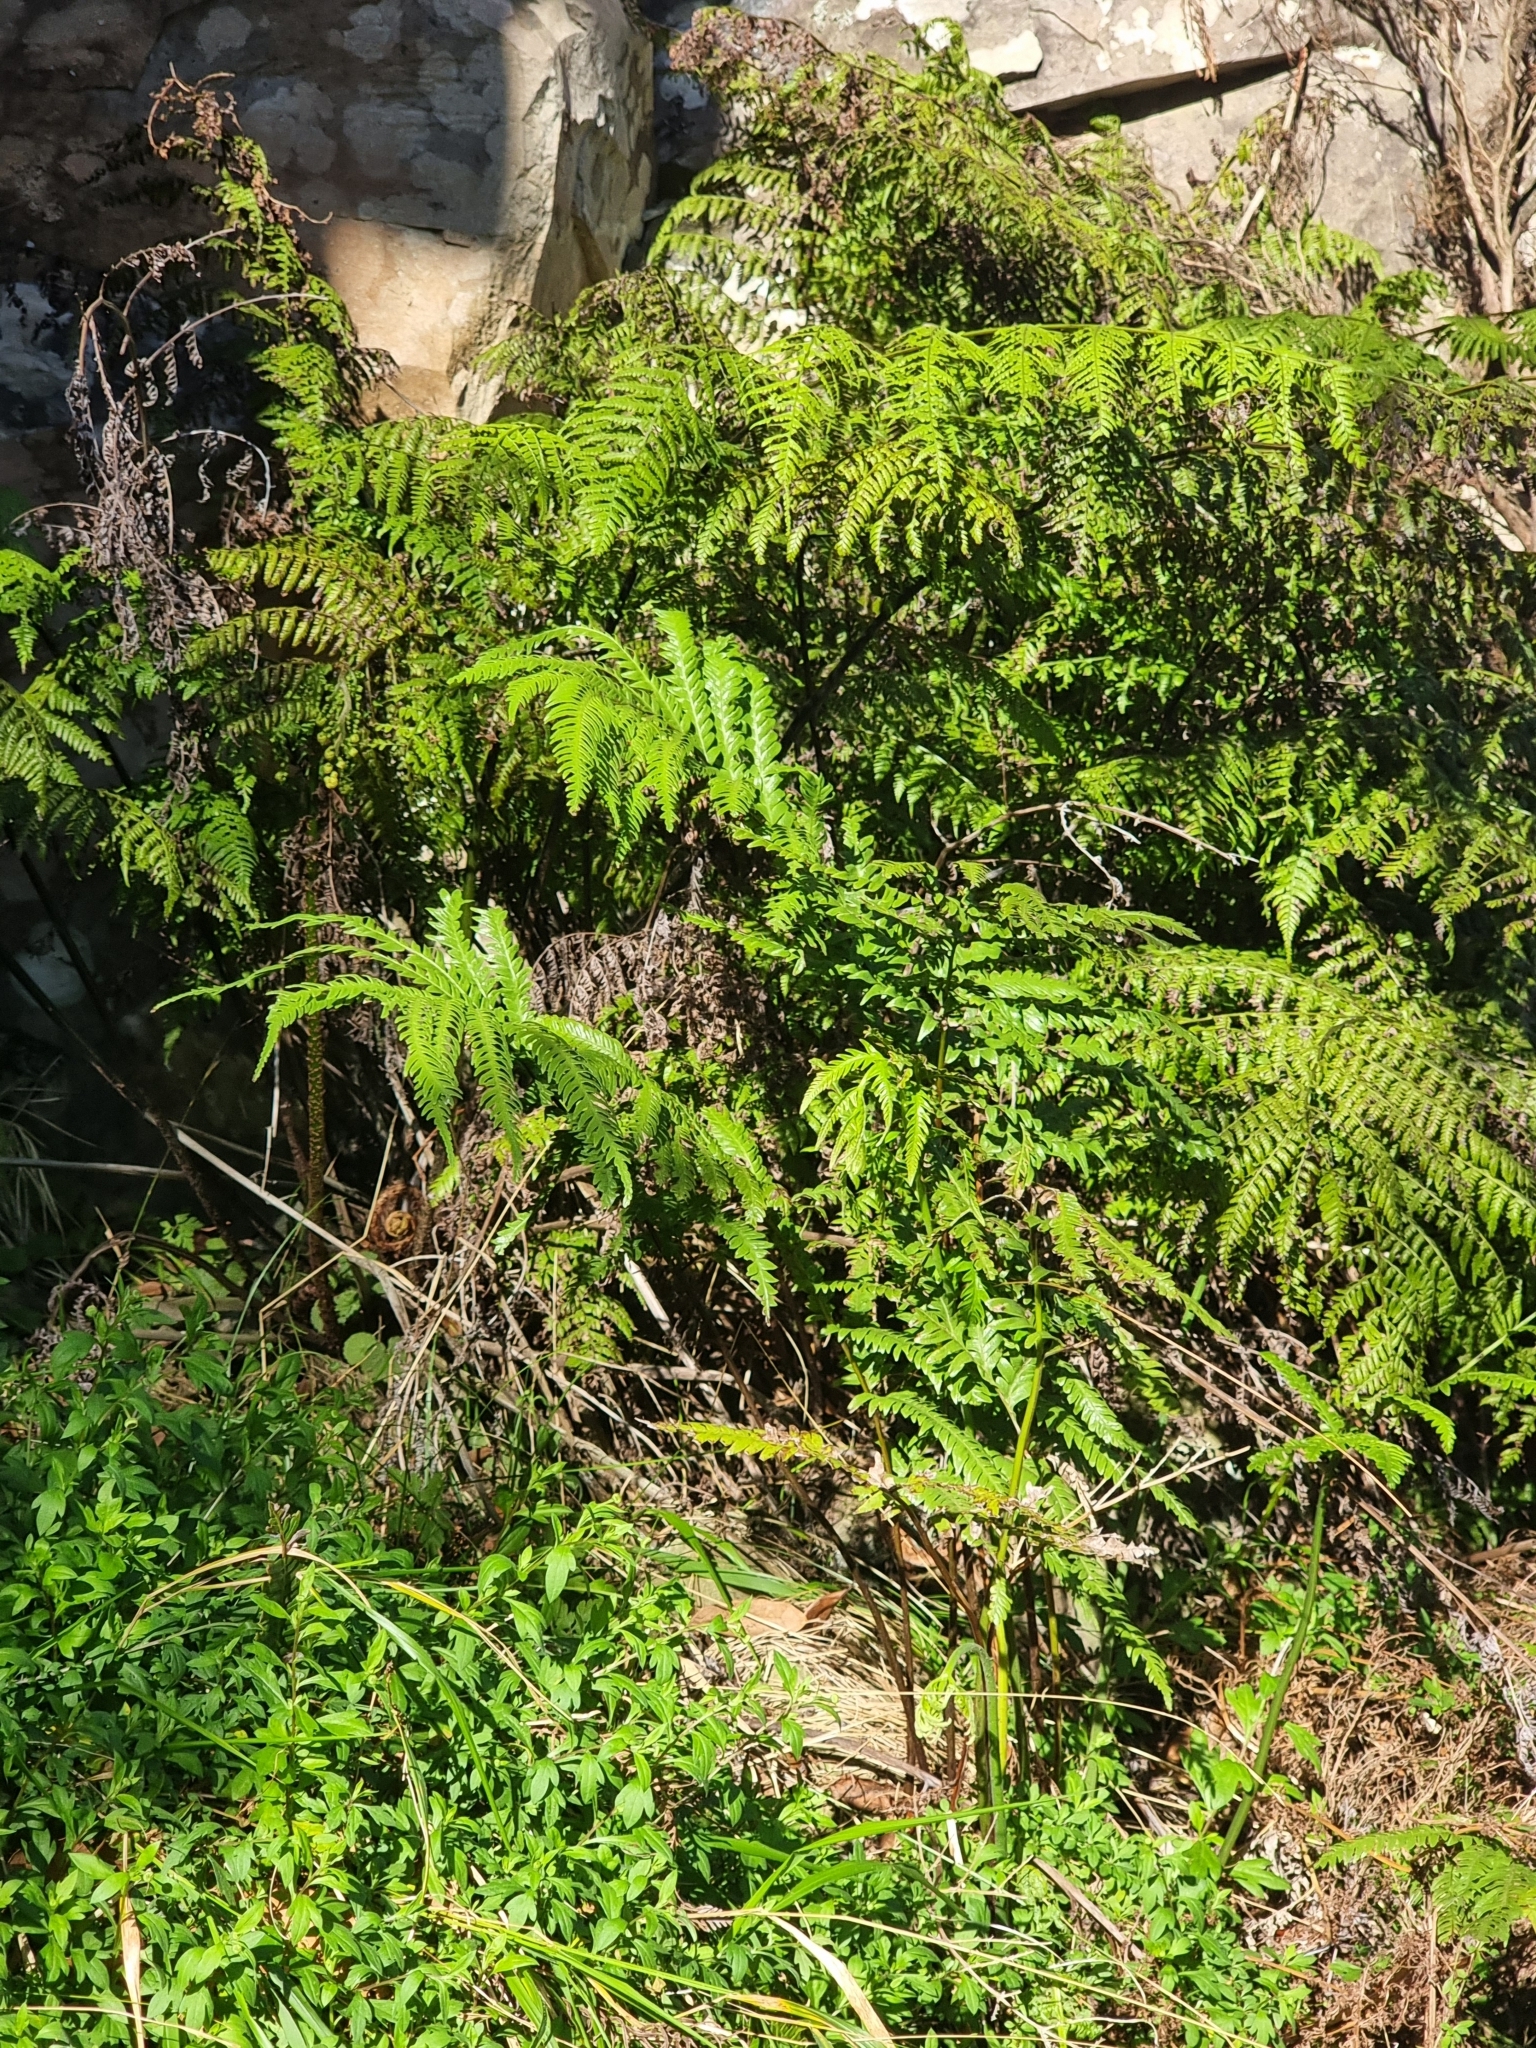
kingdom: Plantae
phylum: Tracheophyta
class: Polypodiopsida
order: Polypodiales
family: Athyriaceae
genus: Diplazium
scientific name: Diplazium caudatum
